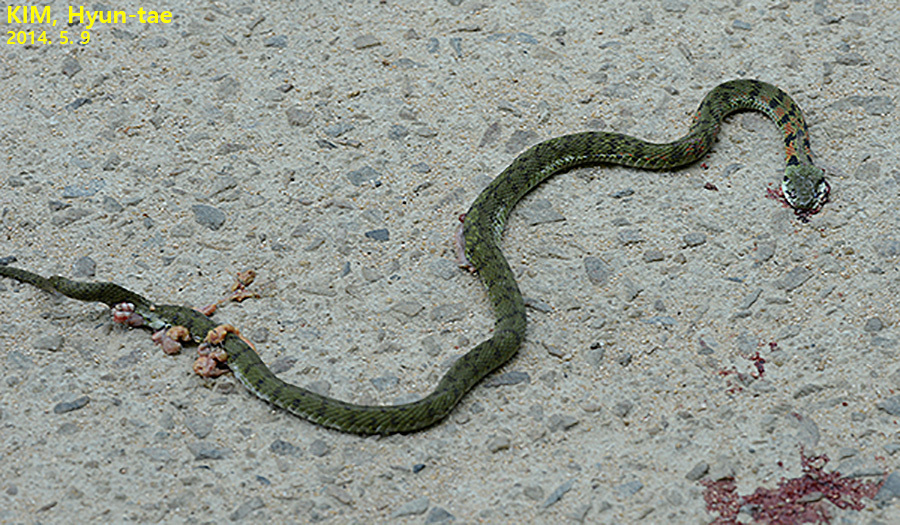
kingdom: Animalia
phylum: Chordata
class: Squamata
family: Colubridae
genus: Rhabdophis
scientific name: Rhabdophis tigrinus
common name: Tiger keelback
